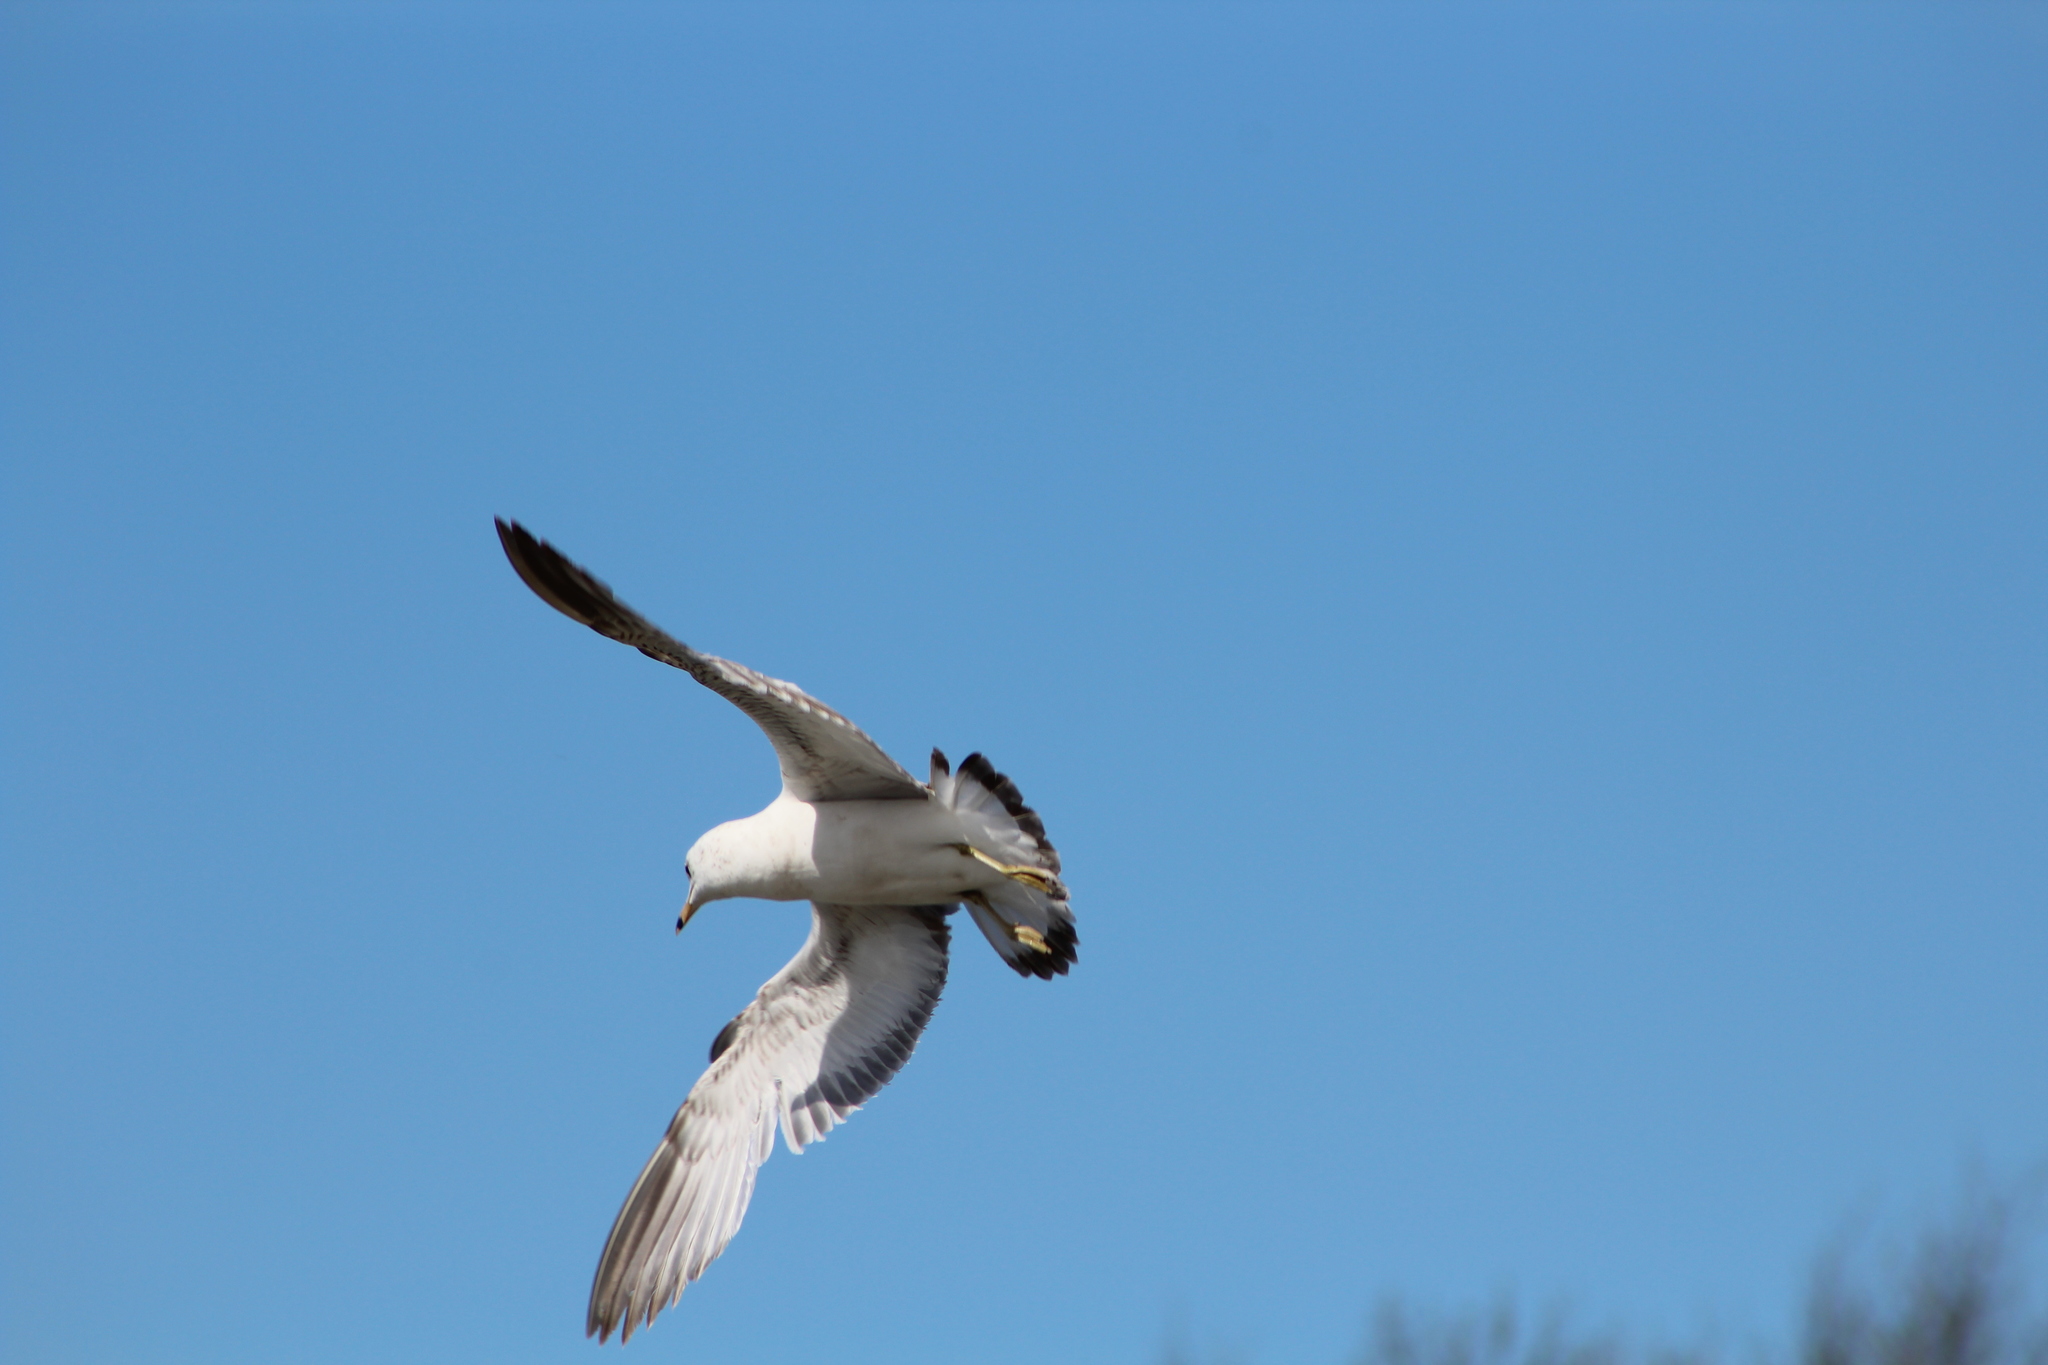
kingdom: Animalia
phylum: Chordata
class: Aves
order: Charadriiformes
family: Laridae
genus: Larus
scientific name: Larus delawarensis
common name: Ring-billed gull
